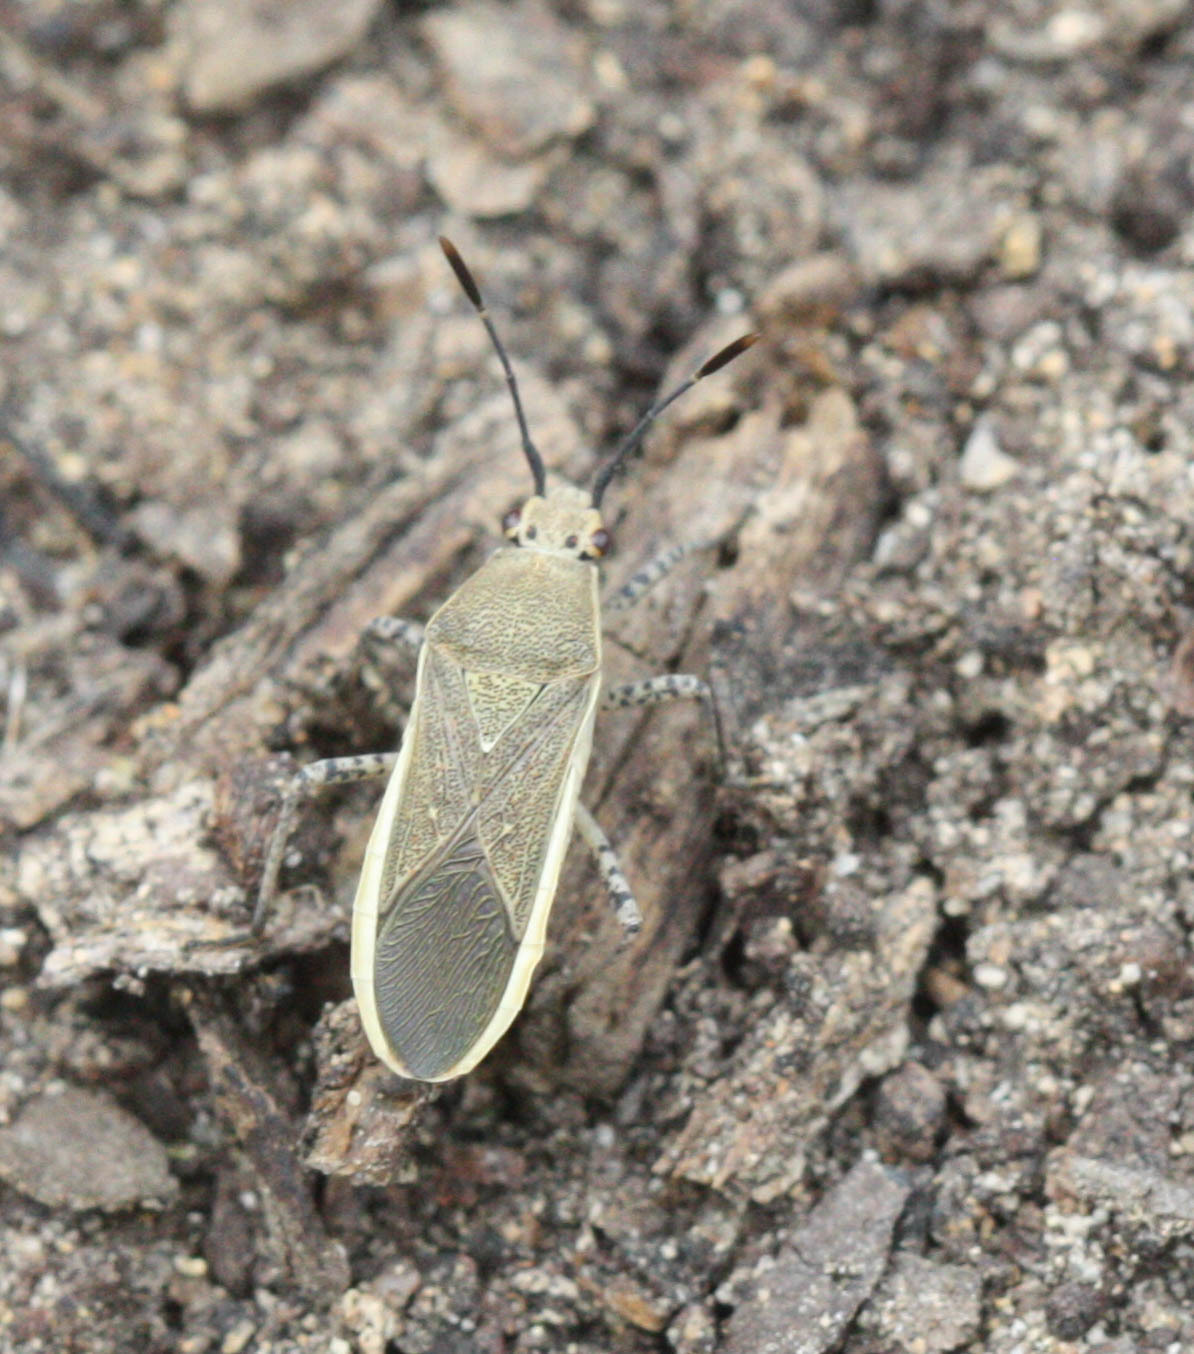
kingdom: Animalia
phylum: Arthropoda
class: Insecta
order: Hemiptera
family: Coreidae
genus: Catorhintha
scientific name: Catorhintha selector
